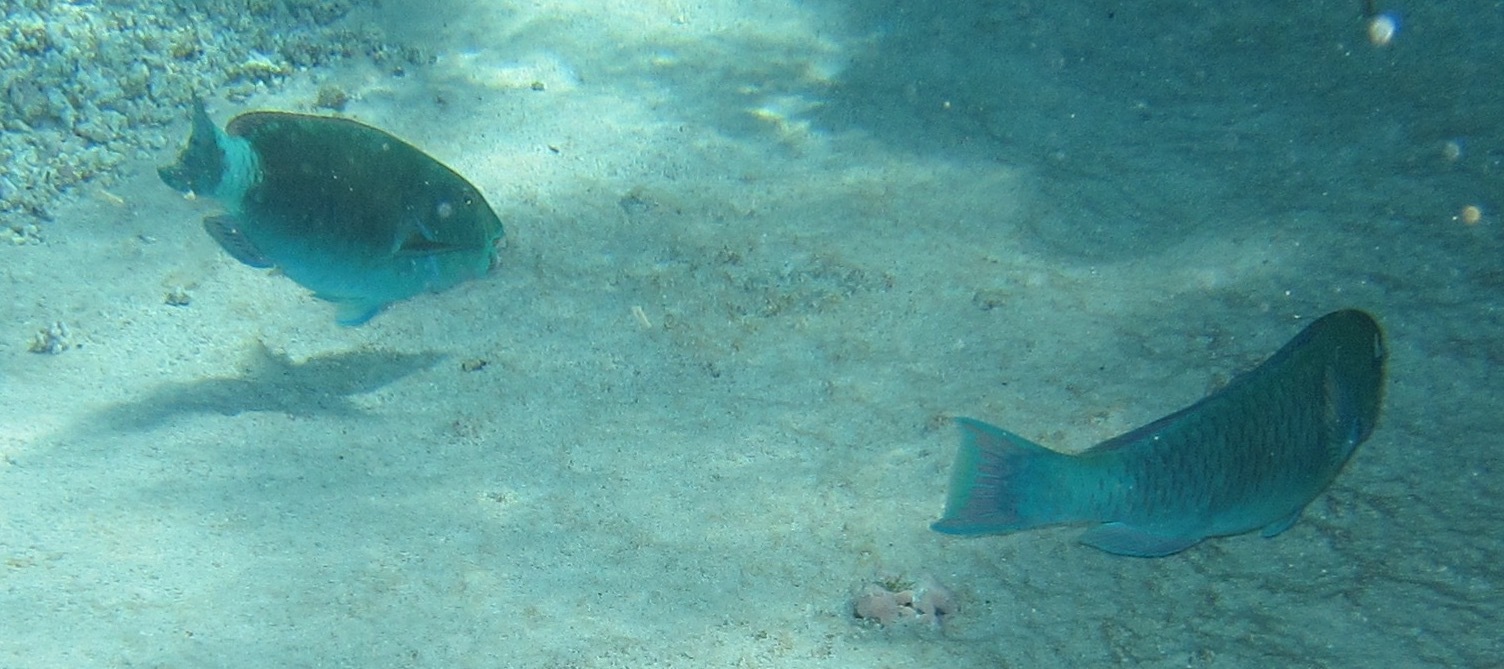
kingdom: Animalia
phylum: Chordata
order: Perciformes
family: Scaridae
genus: Chlorurus
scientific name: Chlorurus frontalis
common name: Reefcrest parrotfish
